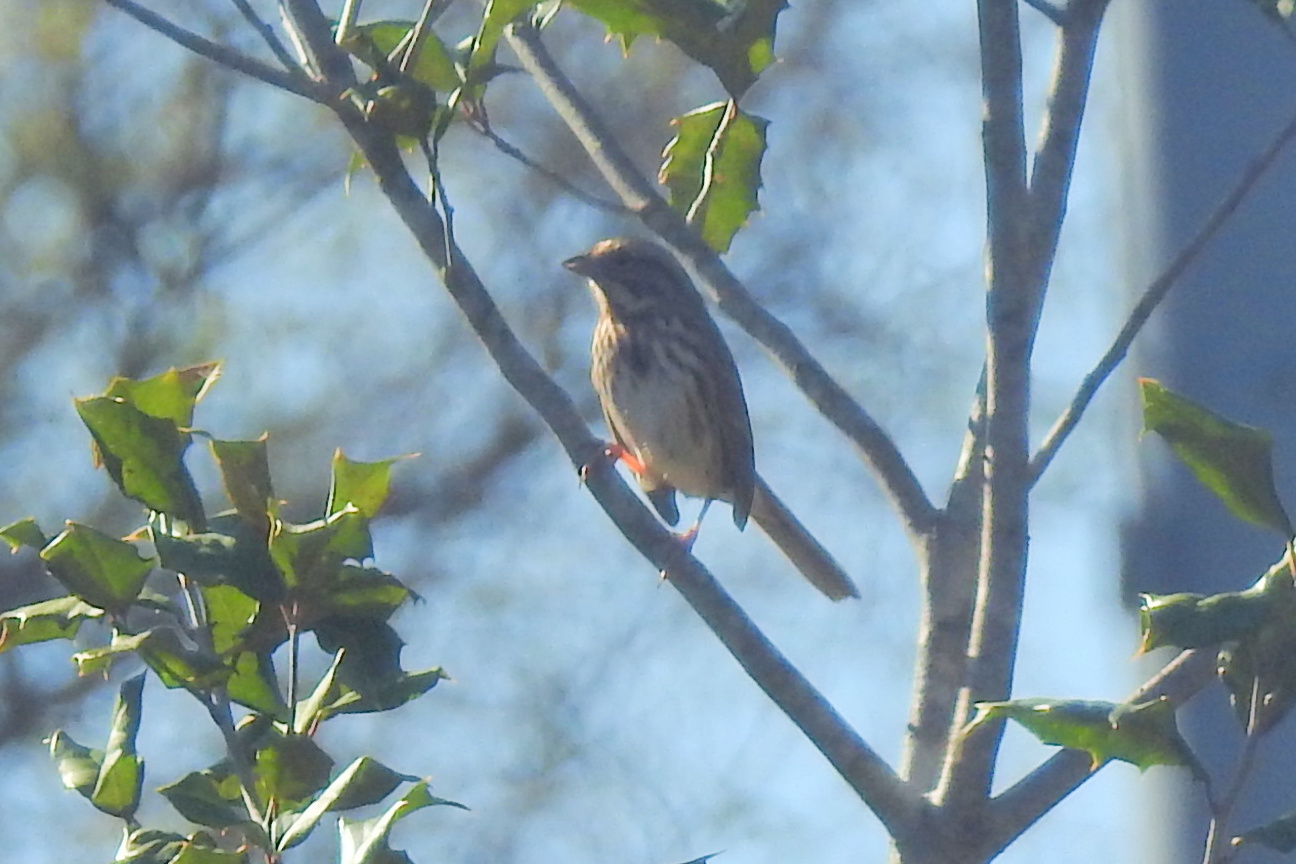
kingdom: Animalia
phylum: Chordata
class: Aves
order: Passeriformes
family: Passerellidae
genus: Melospiza
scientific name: Melospiza melodia
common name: Song sparrow
